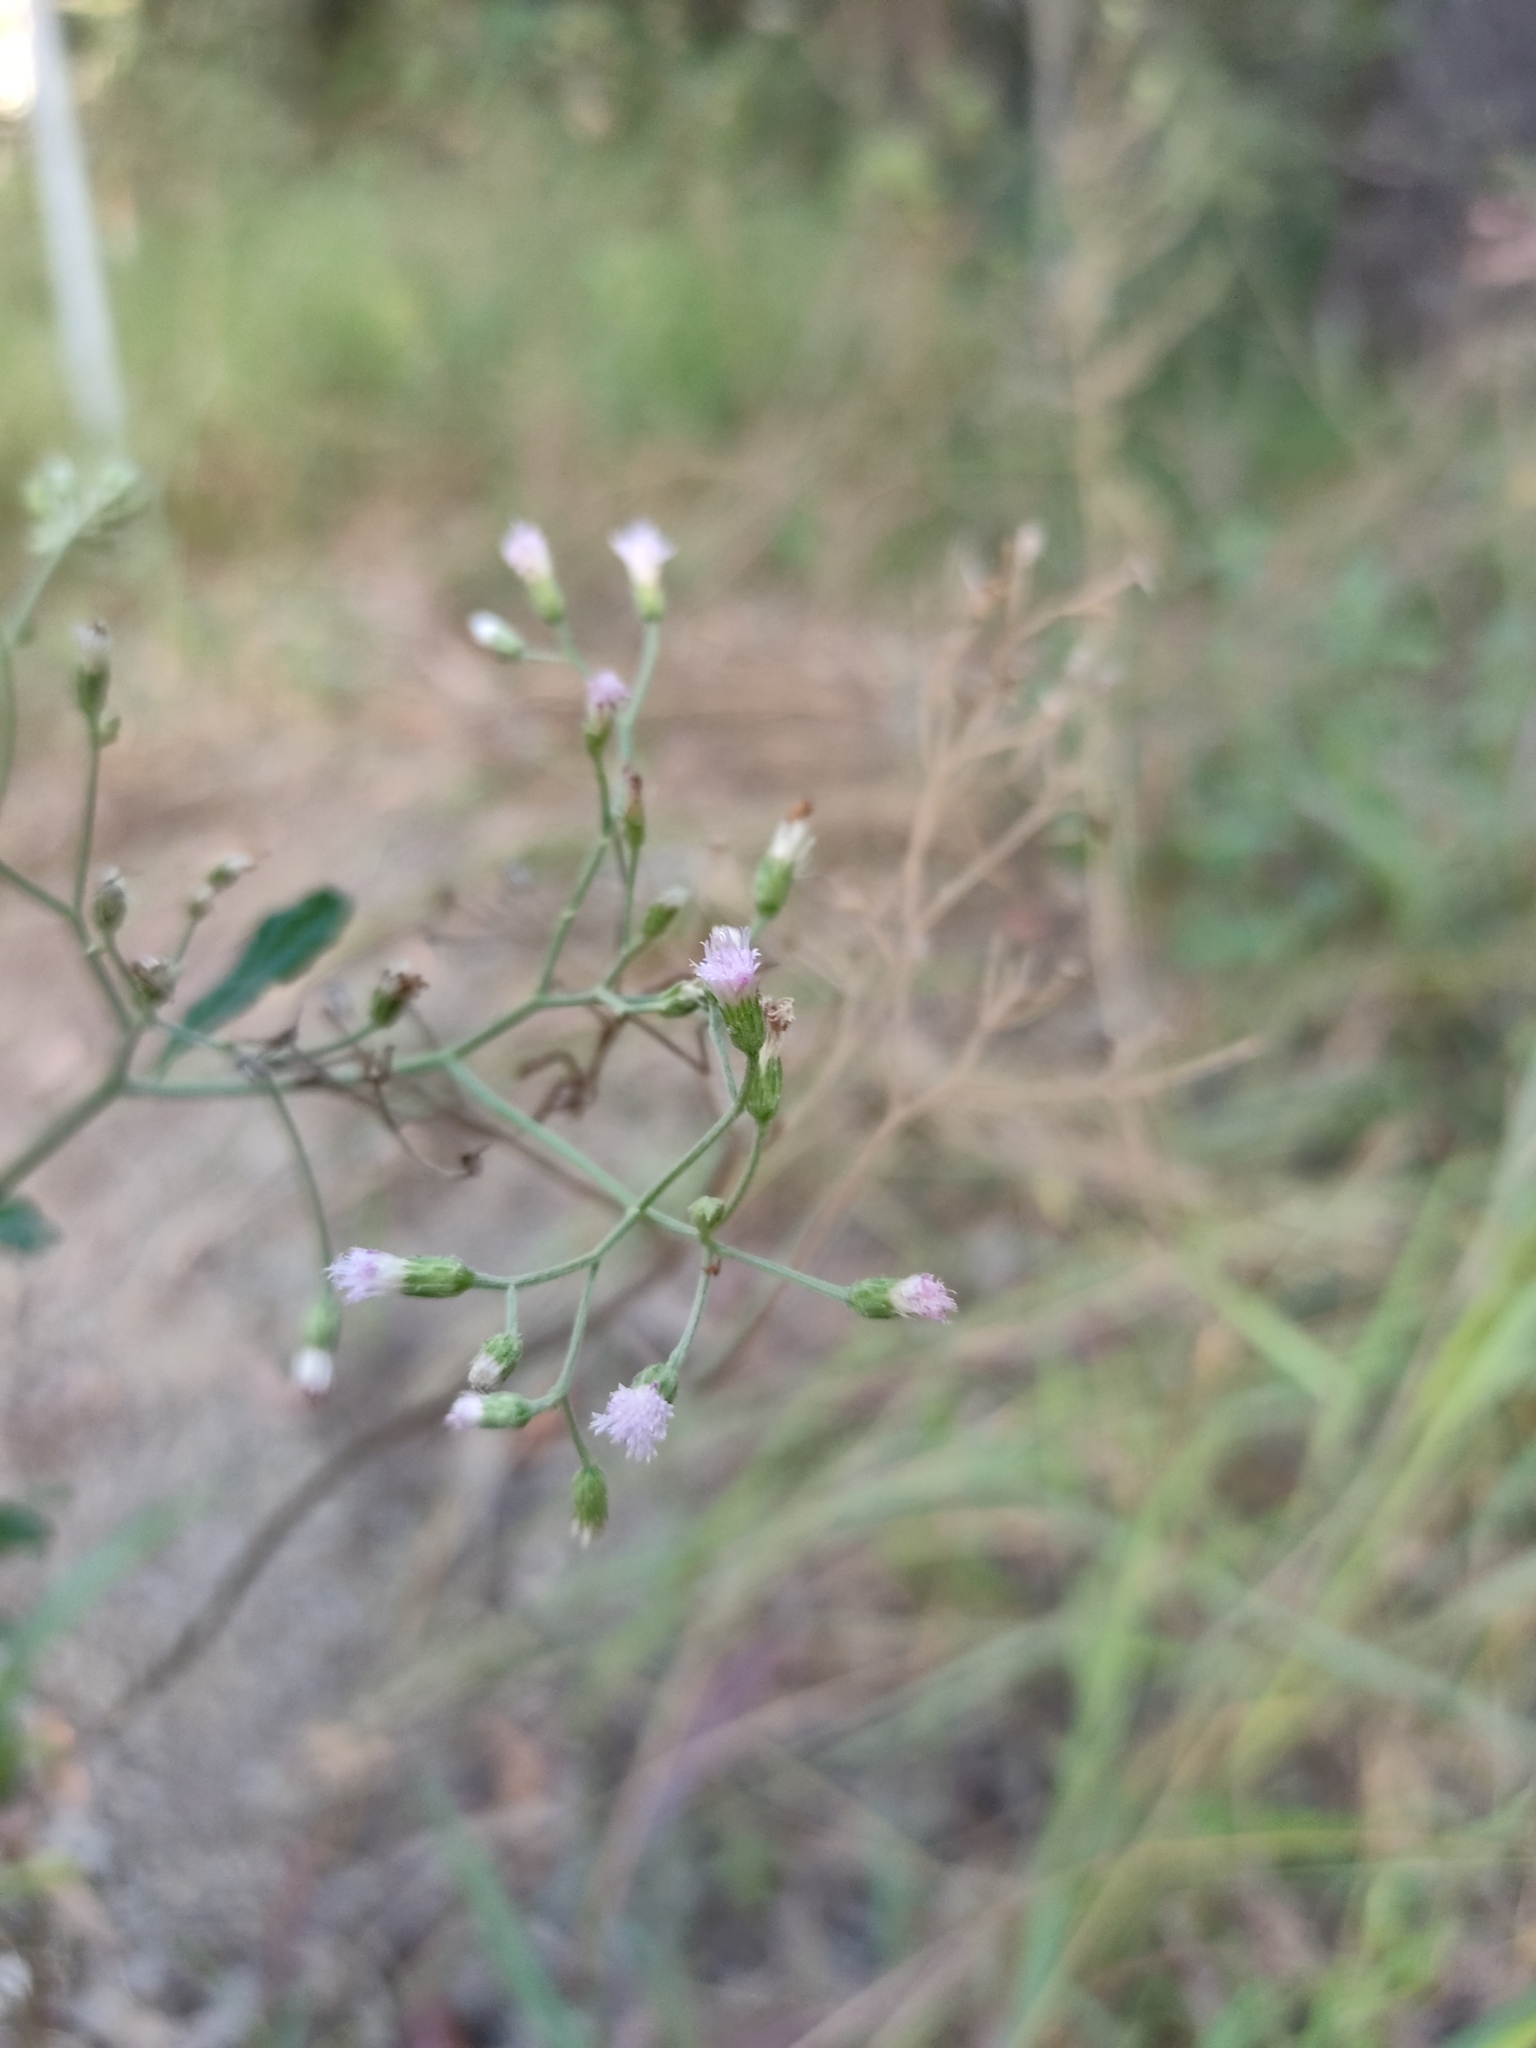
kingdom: Plantae
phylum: Tracheophyta
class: Magnoliopsida
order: Asterales
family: Asteraceae
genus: Cyanthillium
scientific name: Cyanthillium cinereum
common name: Little ironweed
